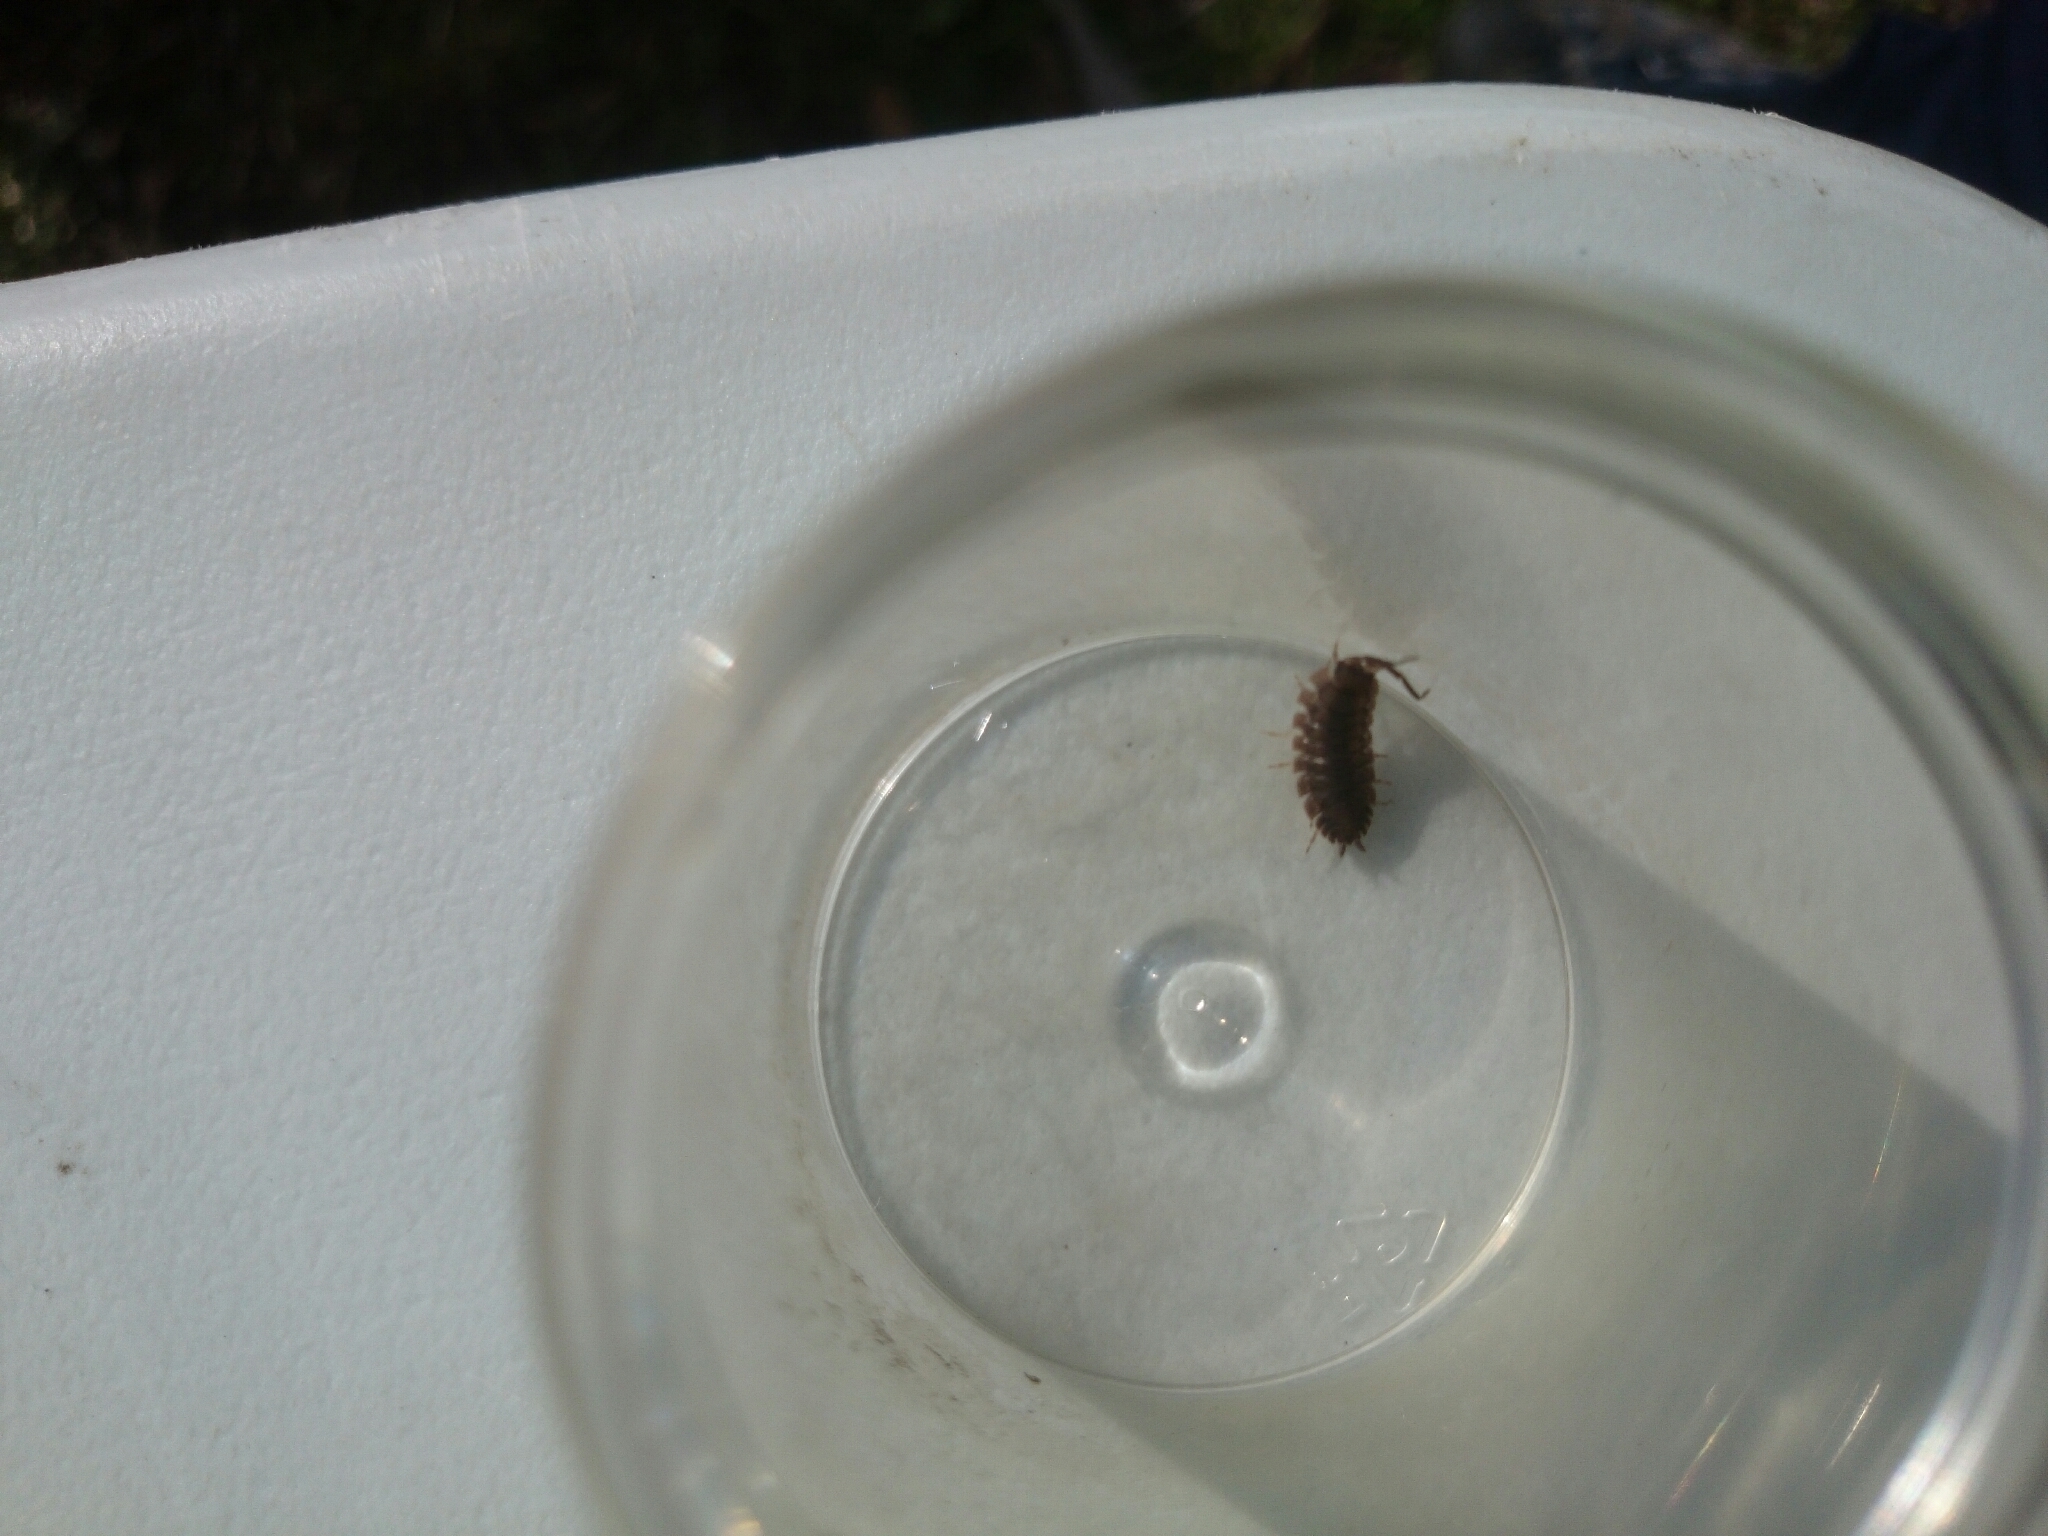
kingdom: Animalia
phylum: Arthropoda
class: Malacostraca
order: Isopoda
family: Porcellionidae
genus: Porcellio
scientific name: Porcellio scaber
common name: Common rough woodlouse
